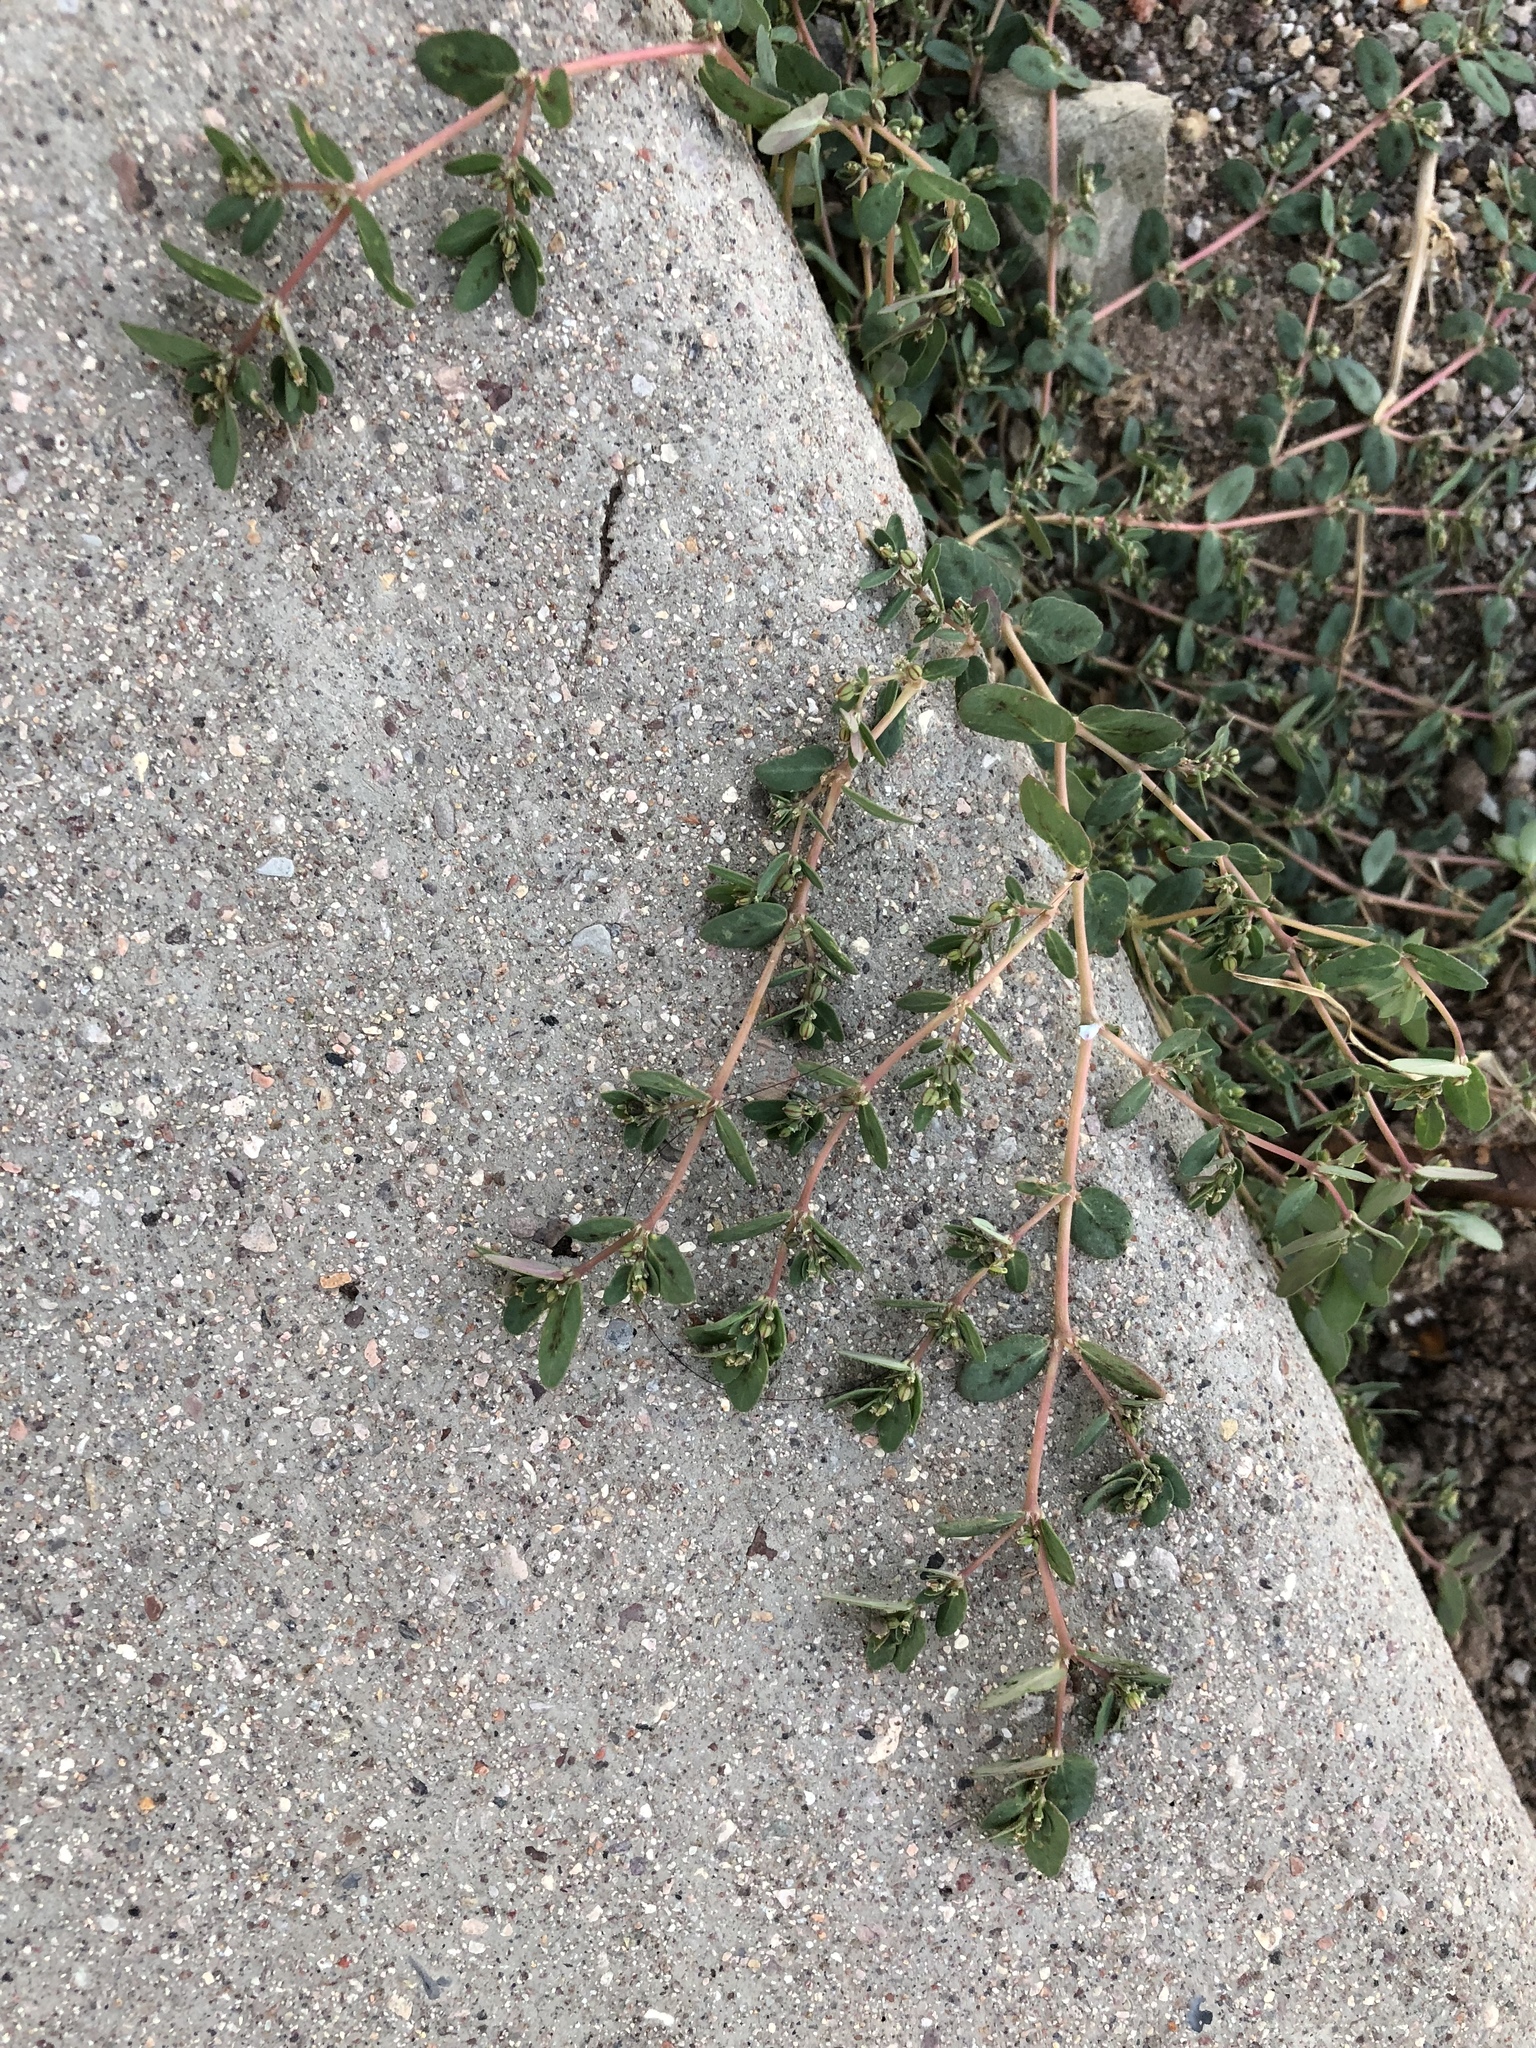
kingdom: Plantae
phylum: Tracheophyta
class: Magnoliopsida
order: Malpighiales
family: Euphorbiaceae
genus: Euphorbia
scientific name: Euphorbia abramsiana
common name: Abram's spurge
